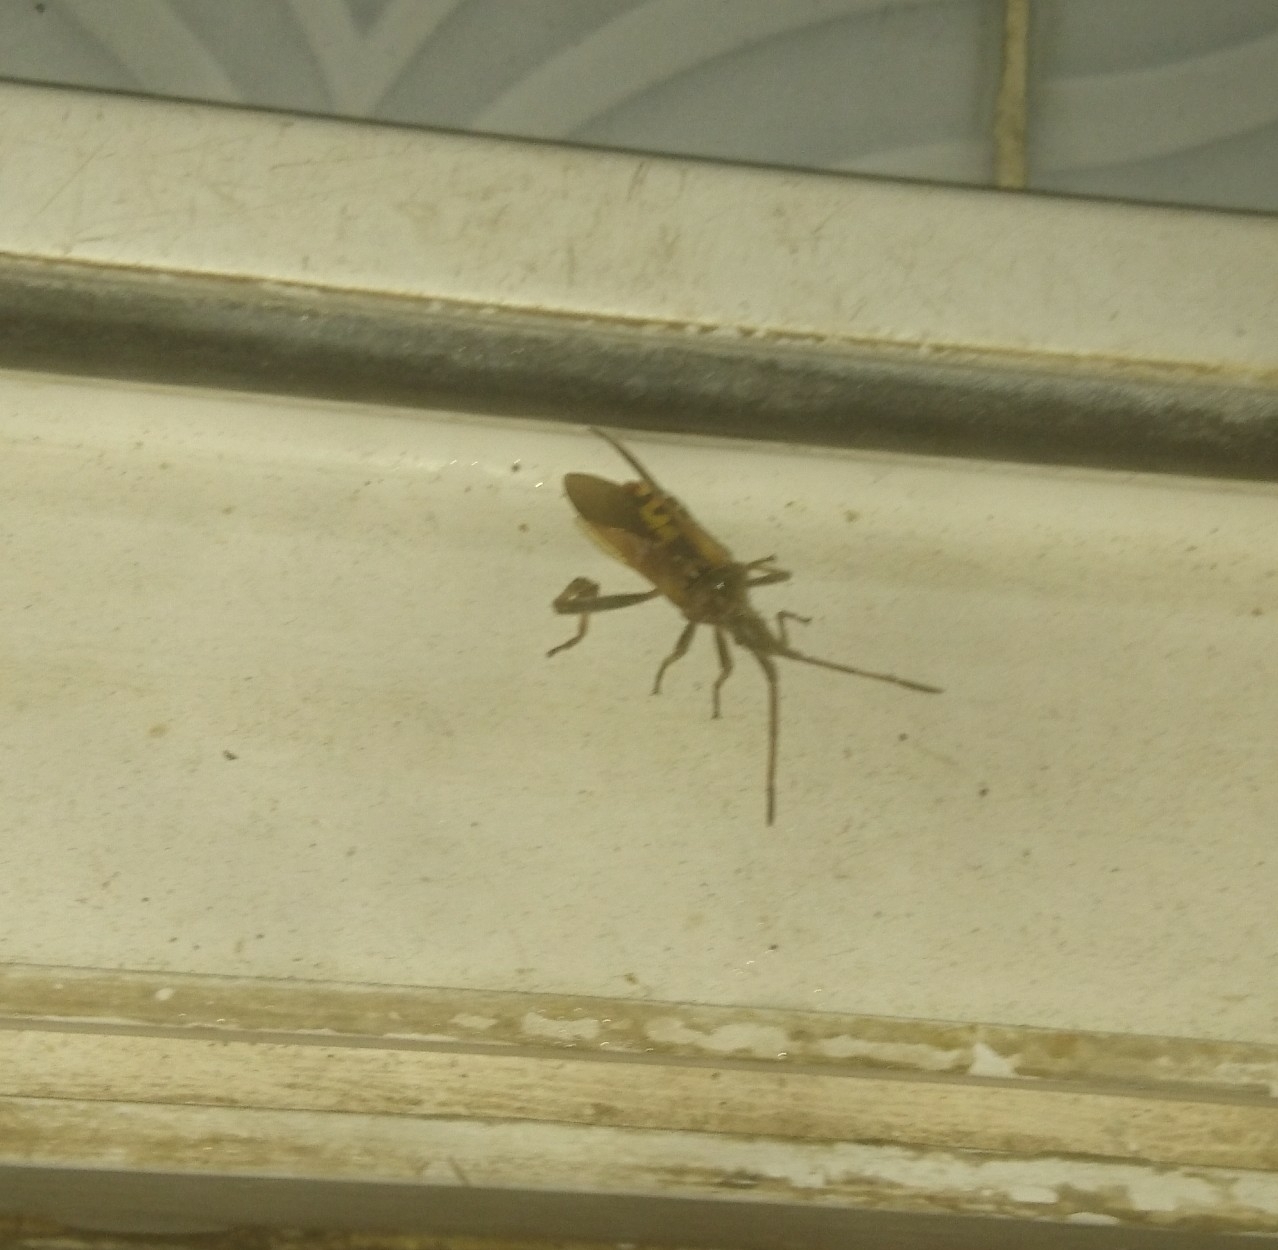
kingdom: Animalia
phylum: Arthropoda
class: Insecta
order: Hemiptera
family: Coreidae
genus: Leptoglossus
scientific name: Leptoglossus occidentalis
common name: Western conifer-seed bug
